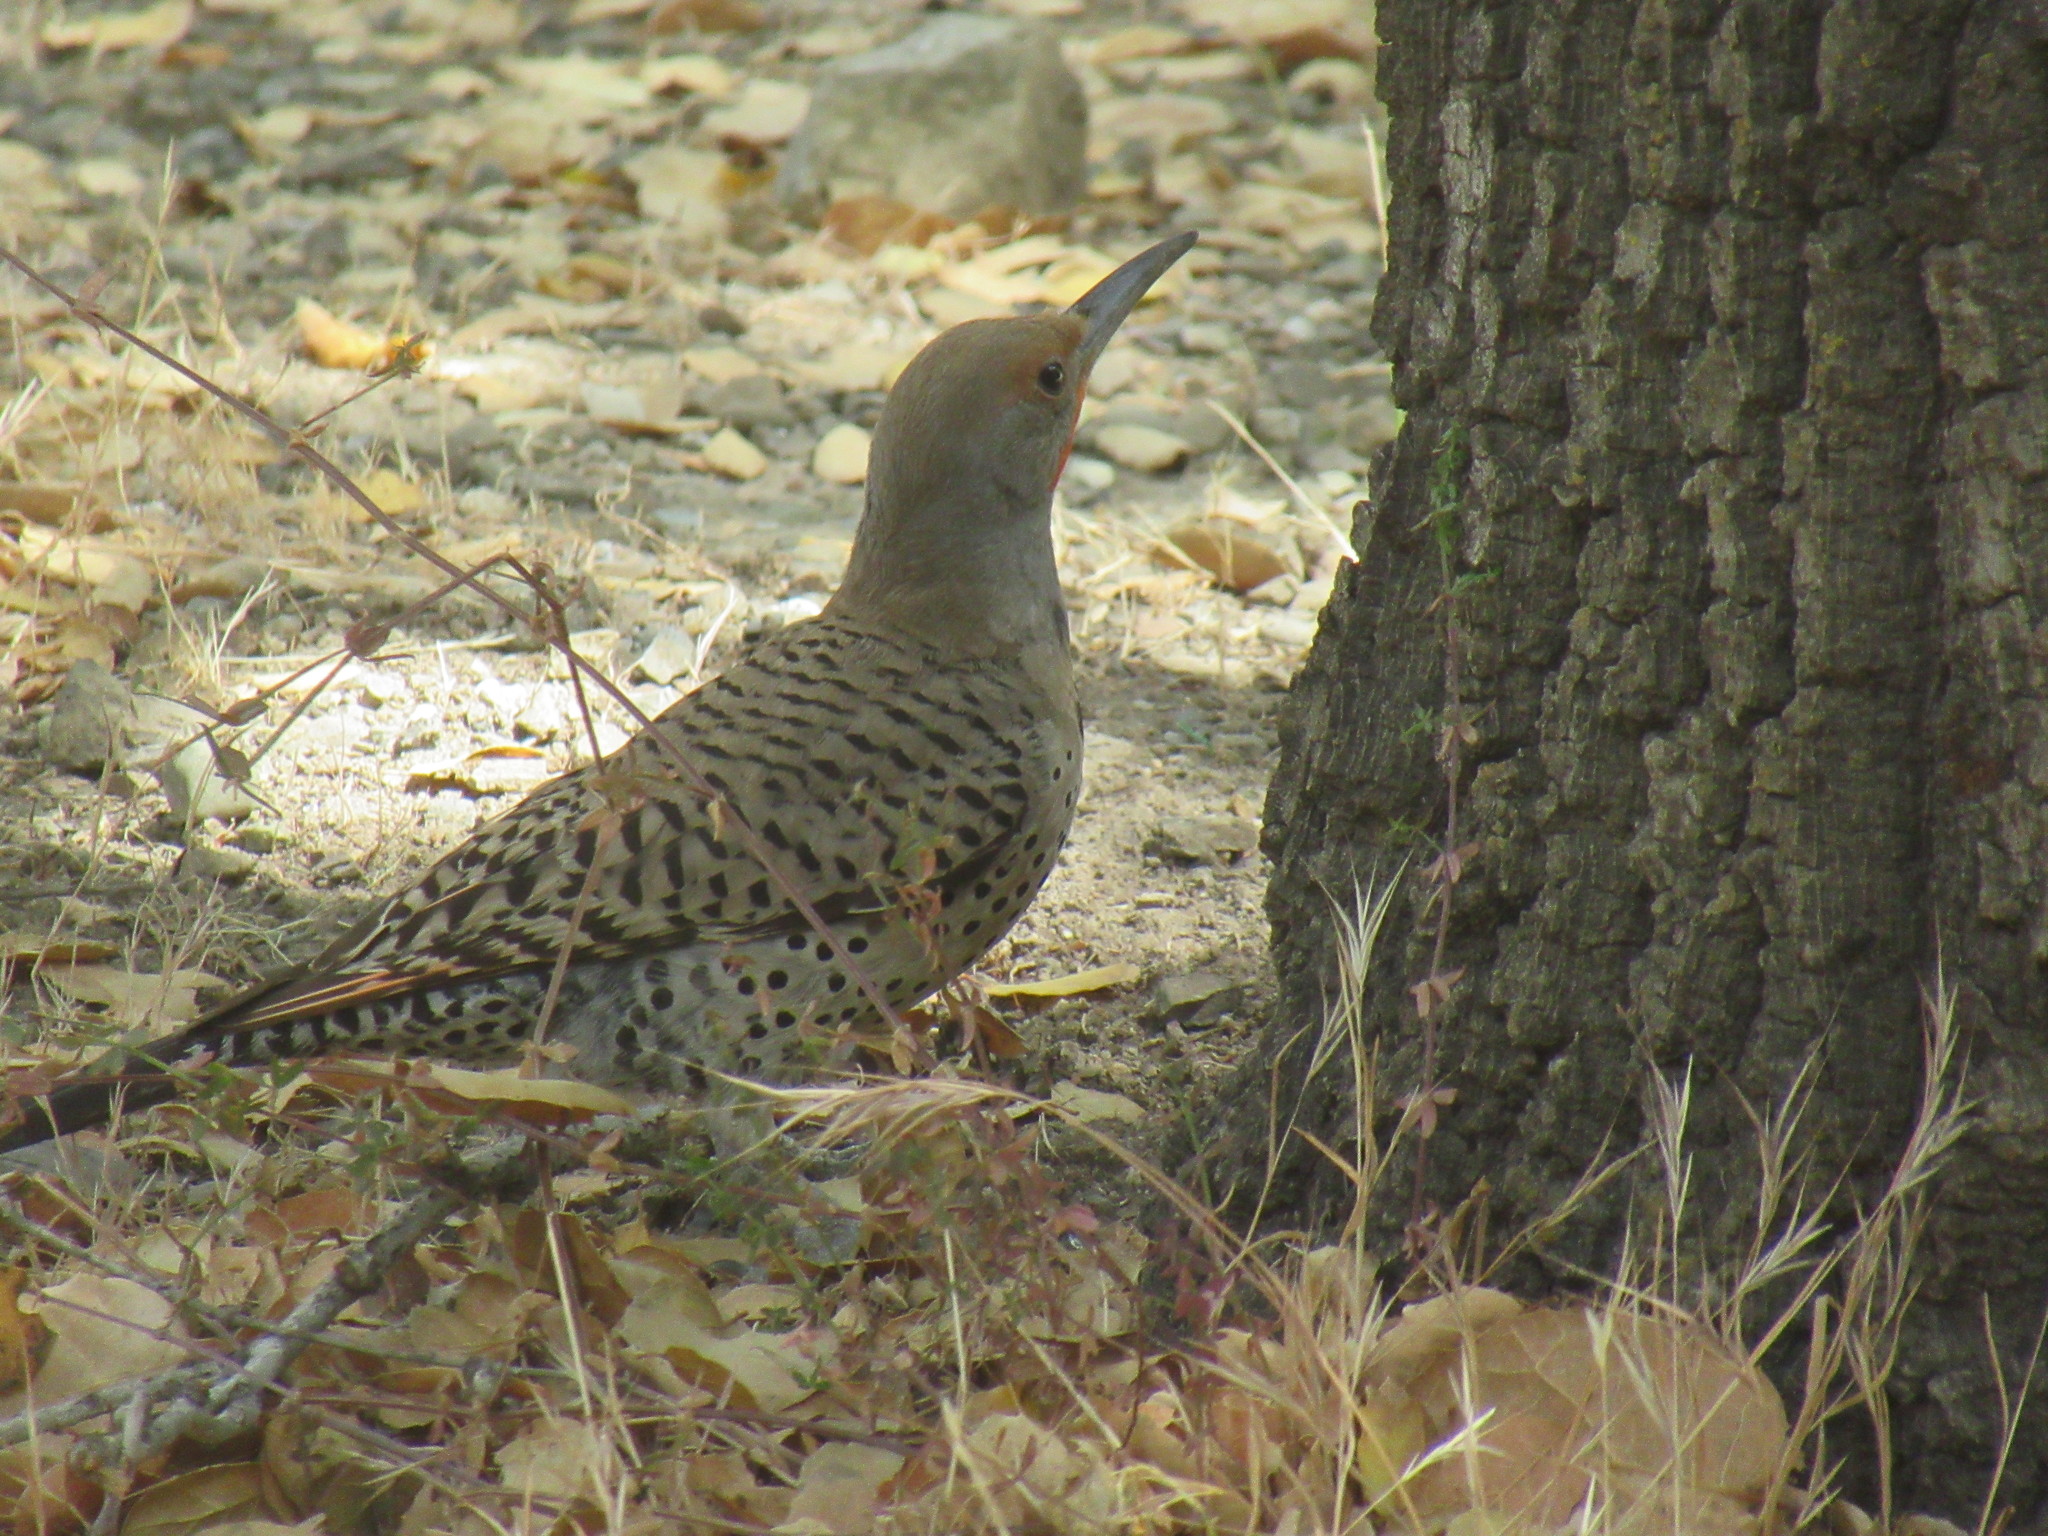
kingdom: Animalia
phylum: Chordata
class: Aves
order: Piciformes
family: Picidae
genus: Colaptes
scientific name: Colaptes auratus
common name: Northern flicker
